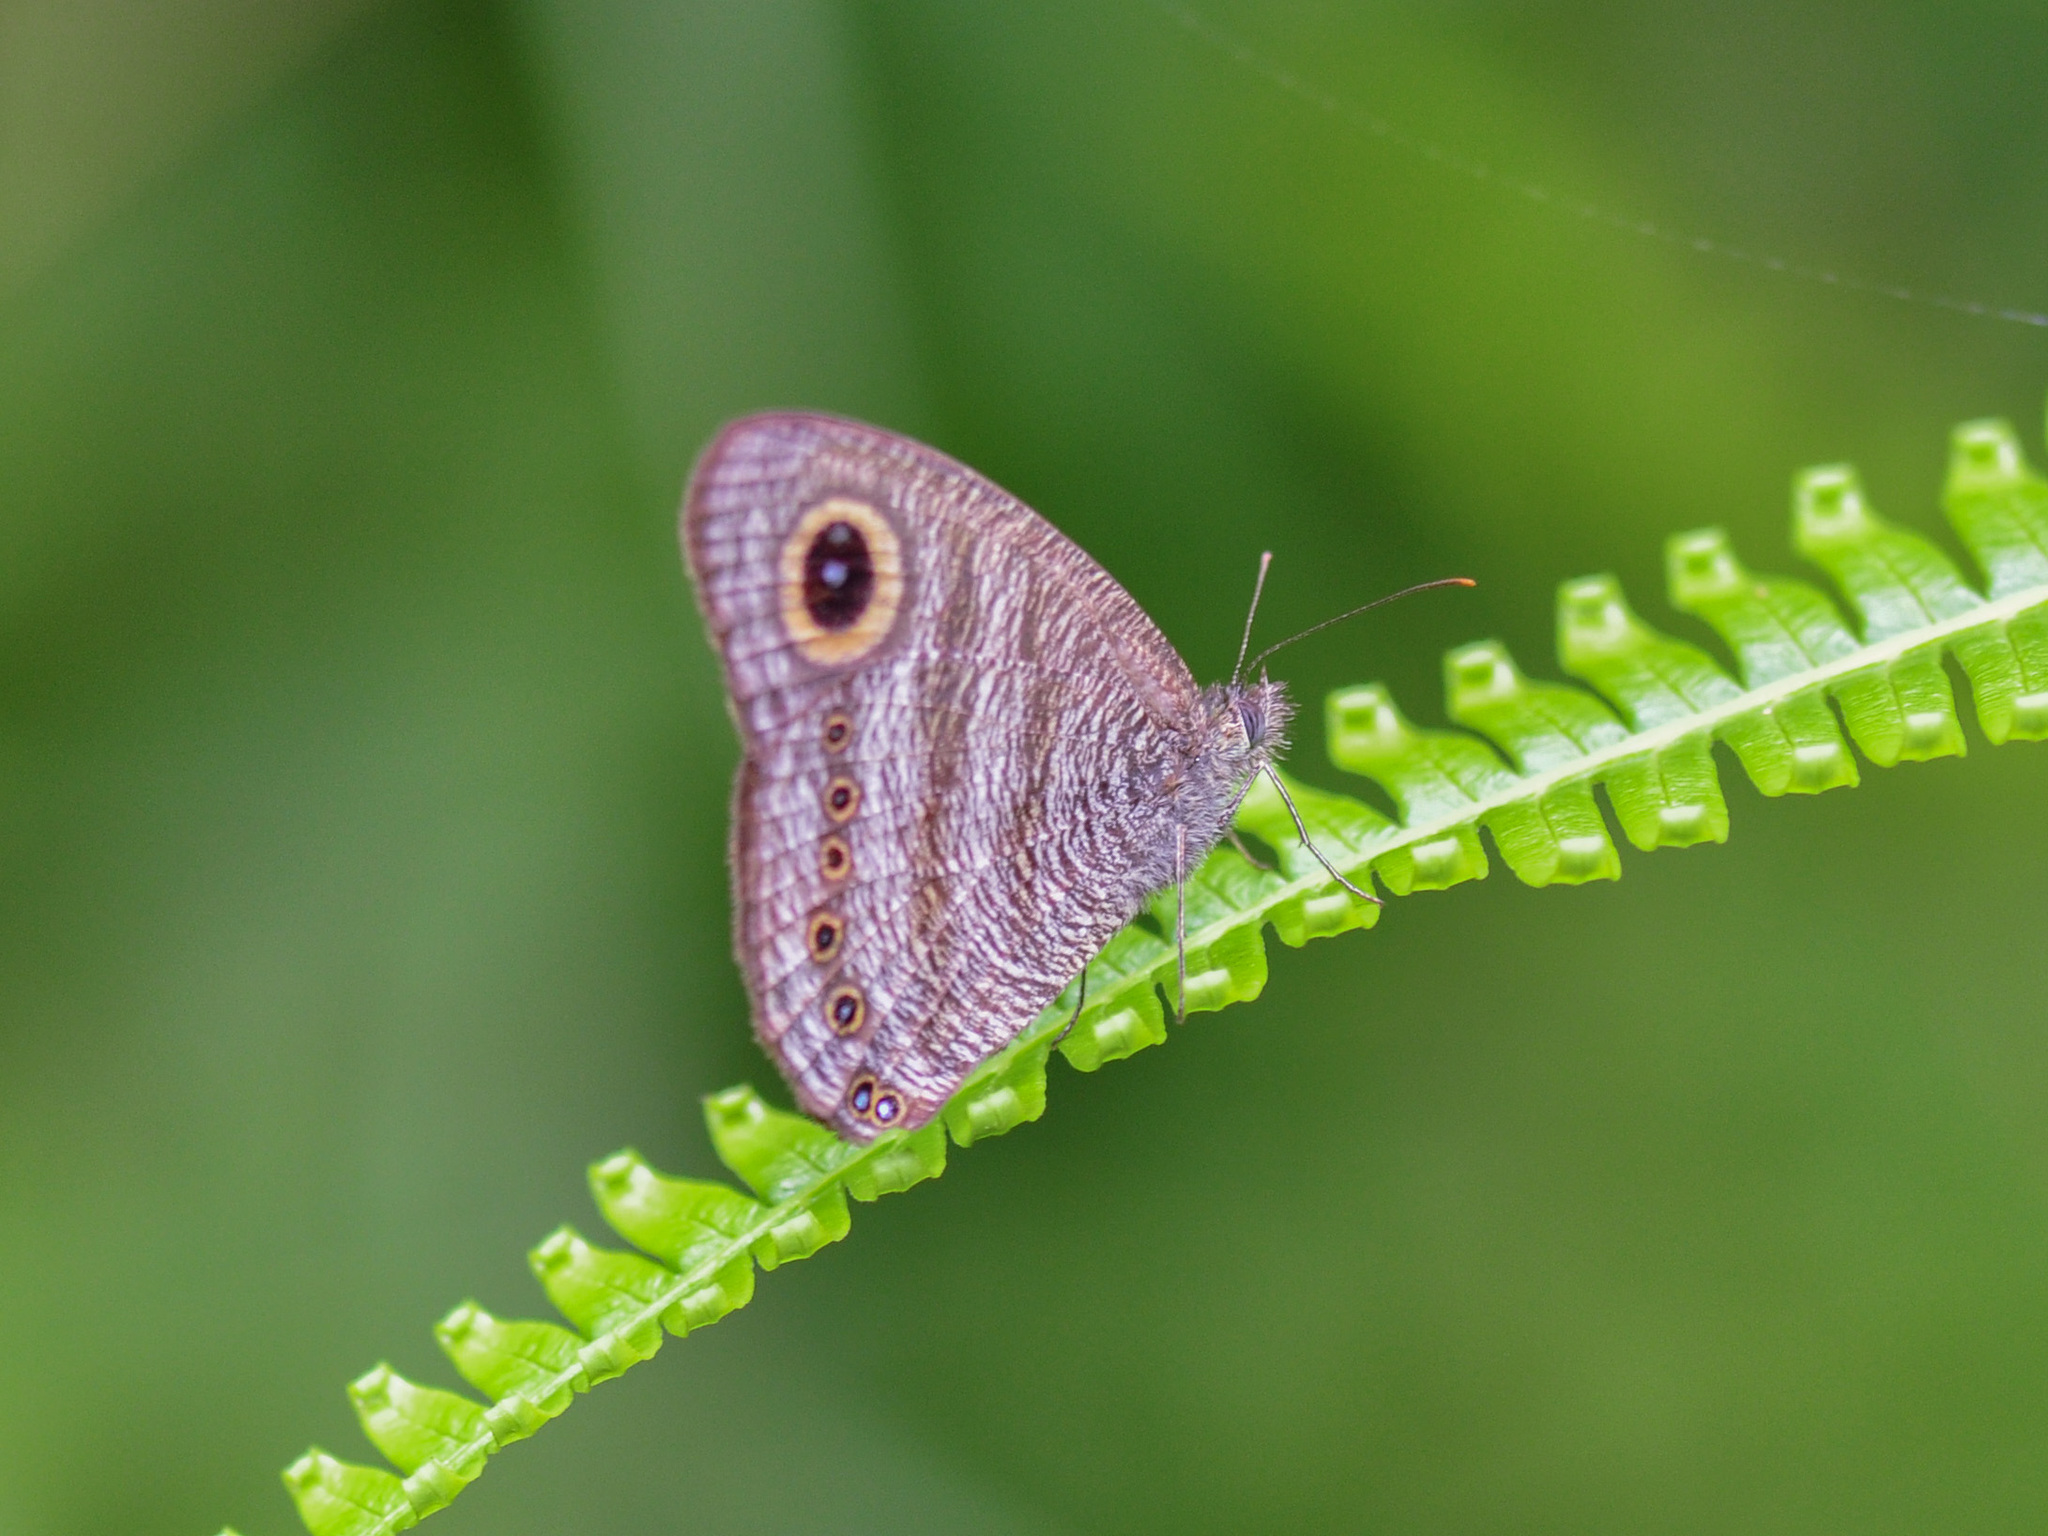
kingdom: Animalia
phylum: Arthropoda
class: Insecta
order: Lepidoptera
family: Nymphalidae
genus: Ypthima
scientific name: Ypthima fasciata
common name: Malayan six-ring
